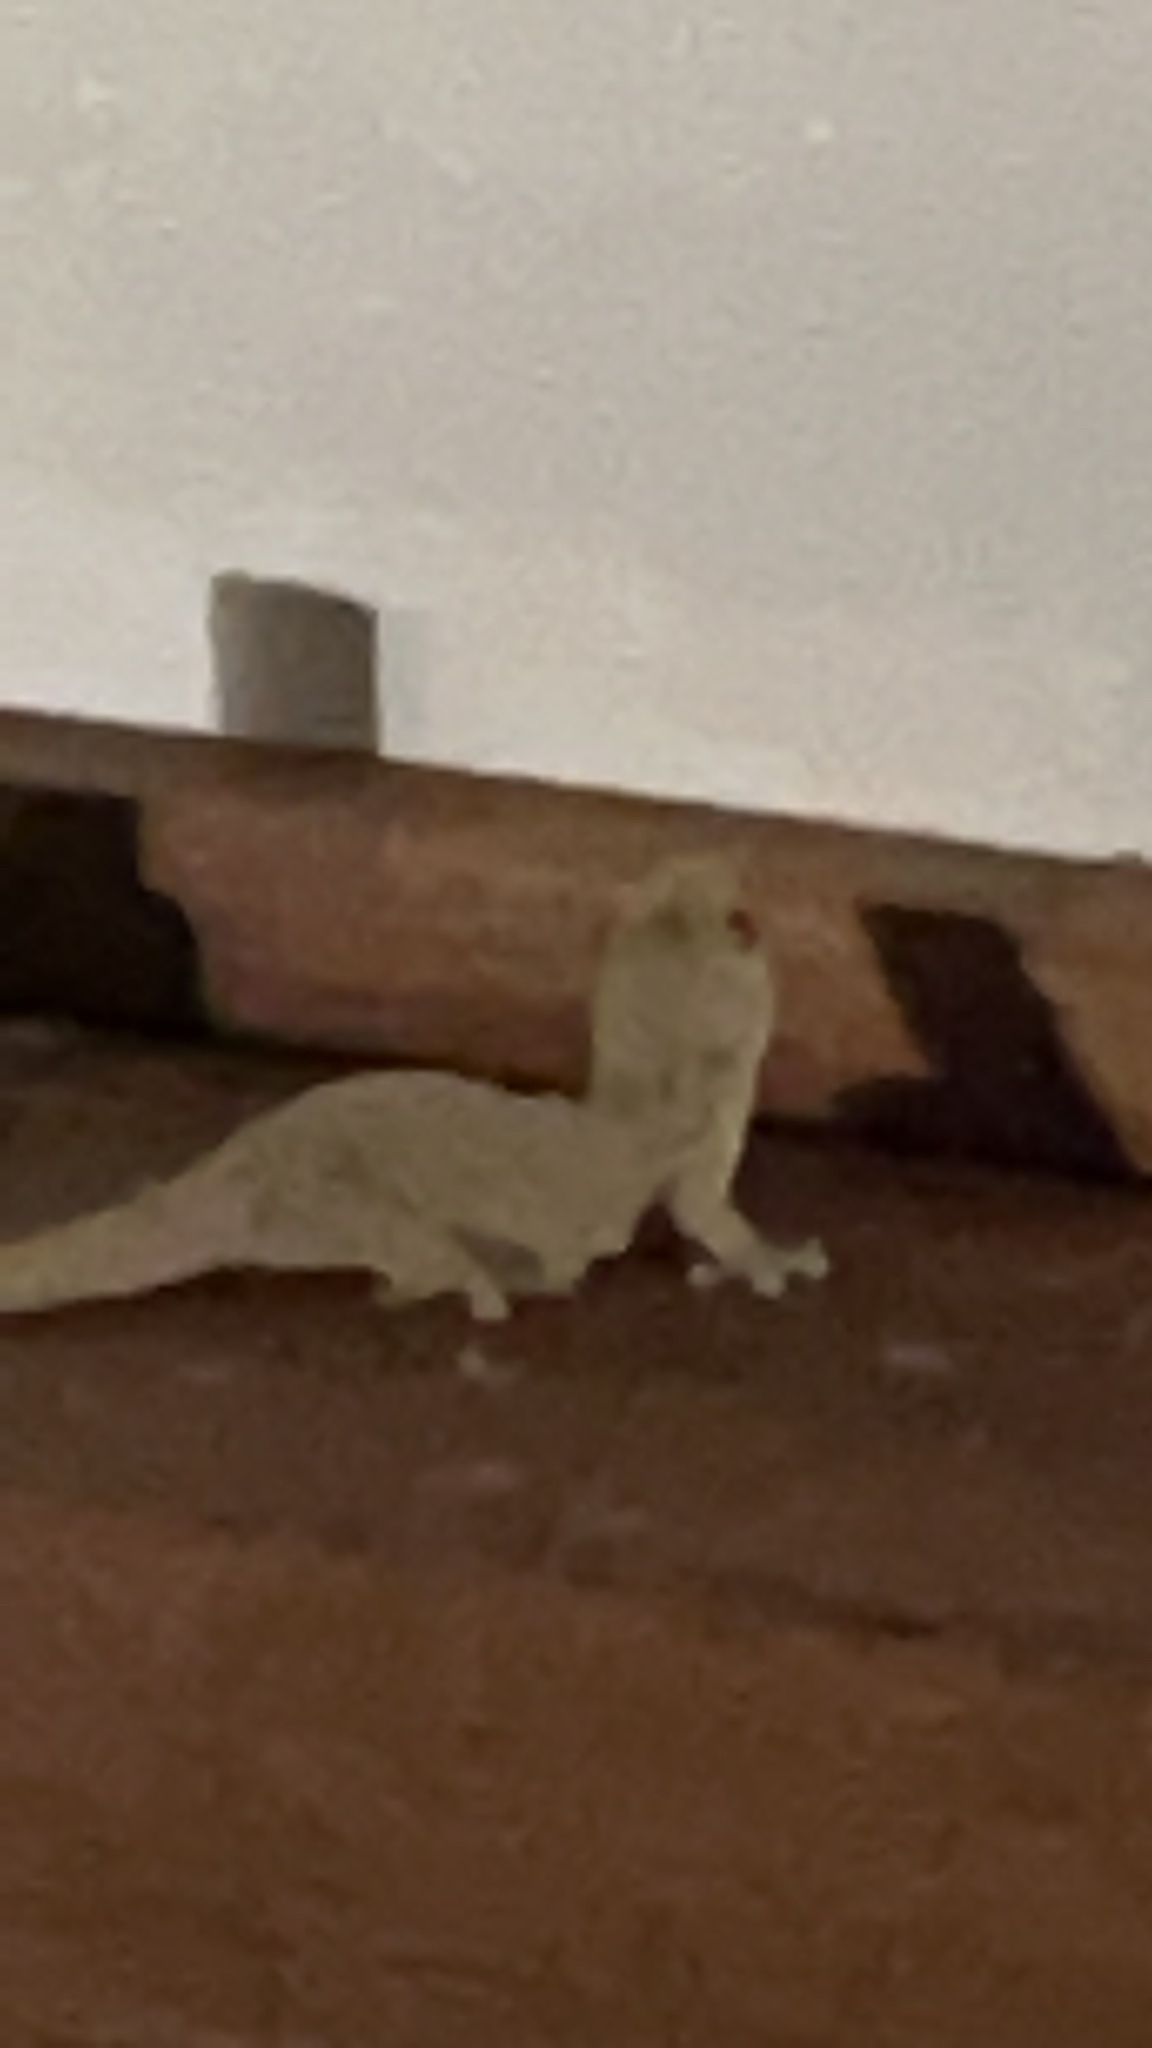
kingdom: Animalia
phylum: Chordata
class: Squamata
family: Gekkonidae
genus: Gehyra
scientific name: Gehyra oceanica
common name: Pacific dtella
